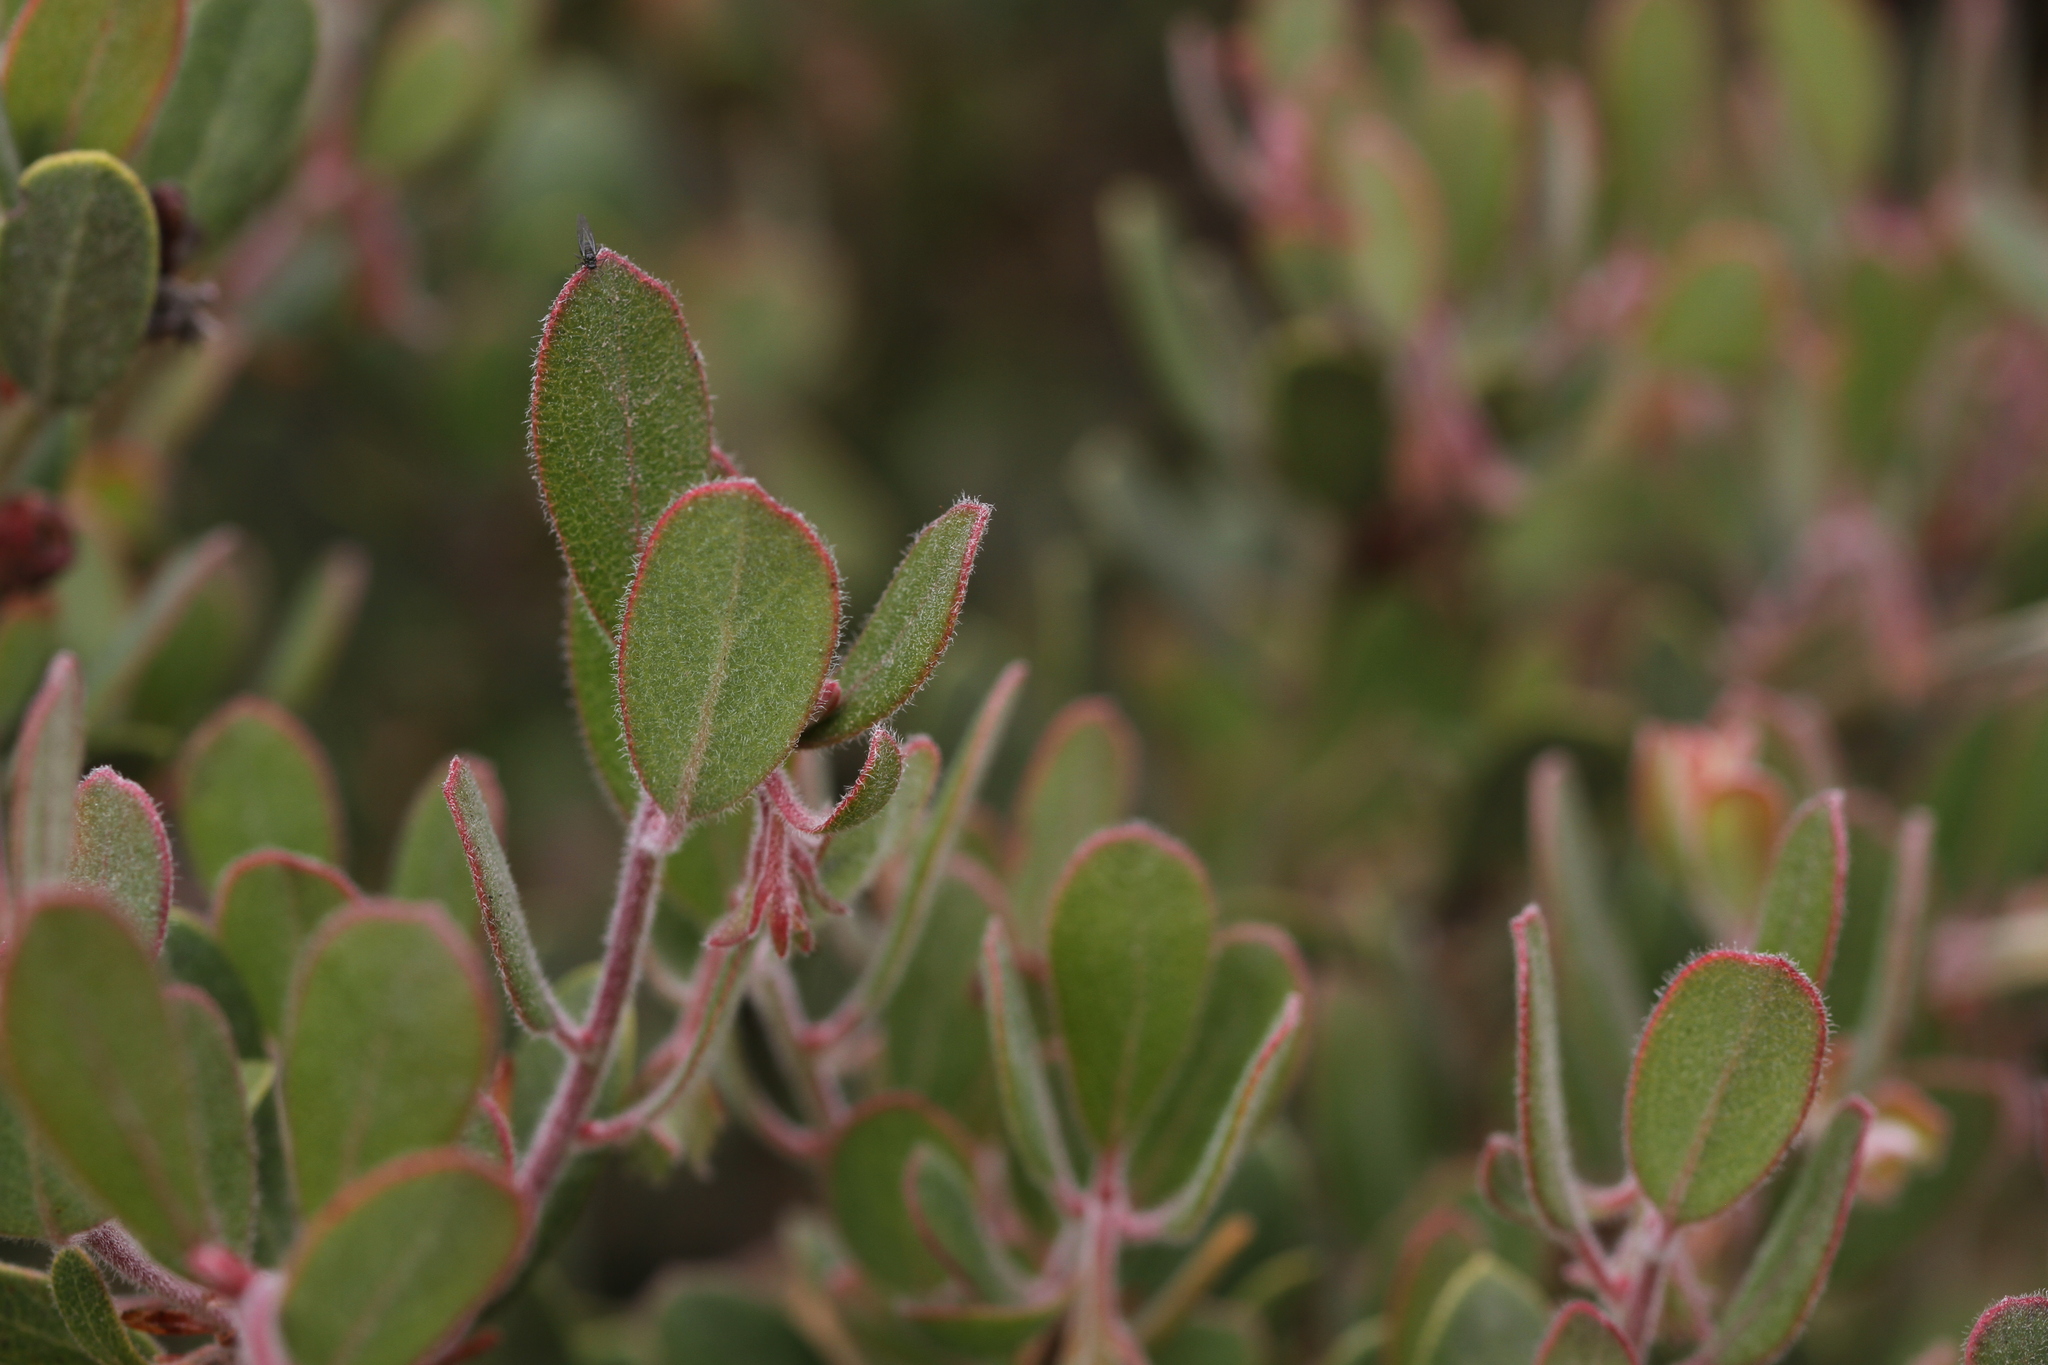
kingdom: Plantae
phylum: Tracheophyta
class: Magnoliopsida
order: Ericales
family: Ericaceae
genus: Arctostaphylos
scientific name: Arctostaphylos pumila
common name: Sandmat manzanita
